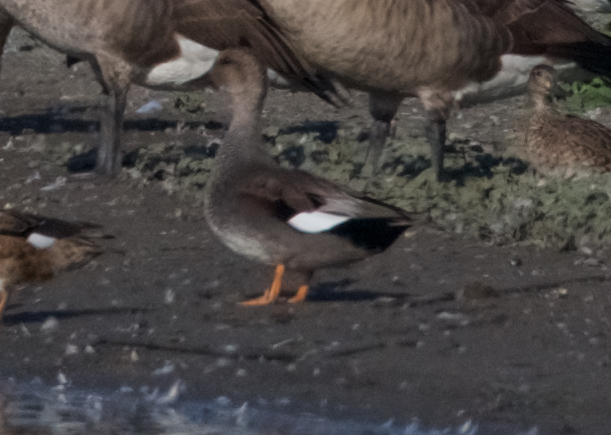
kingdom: Animalia
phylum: Chordata
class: Aves
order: Anseriformes
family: Anatidae
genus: Mareca
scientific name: Mareca strepera
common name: Gadwall
